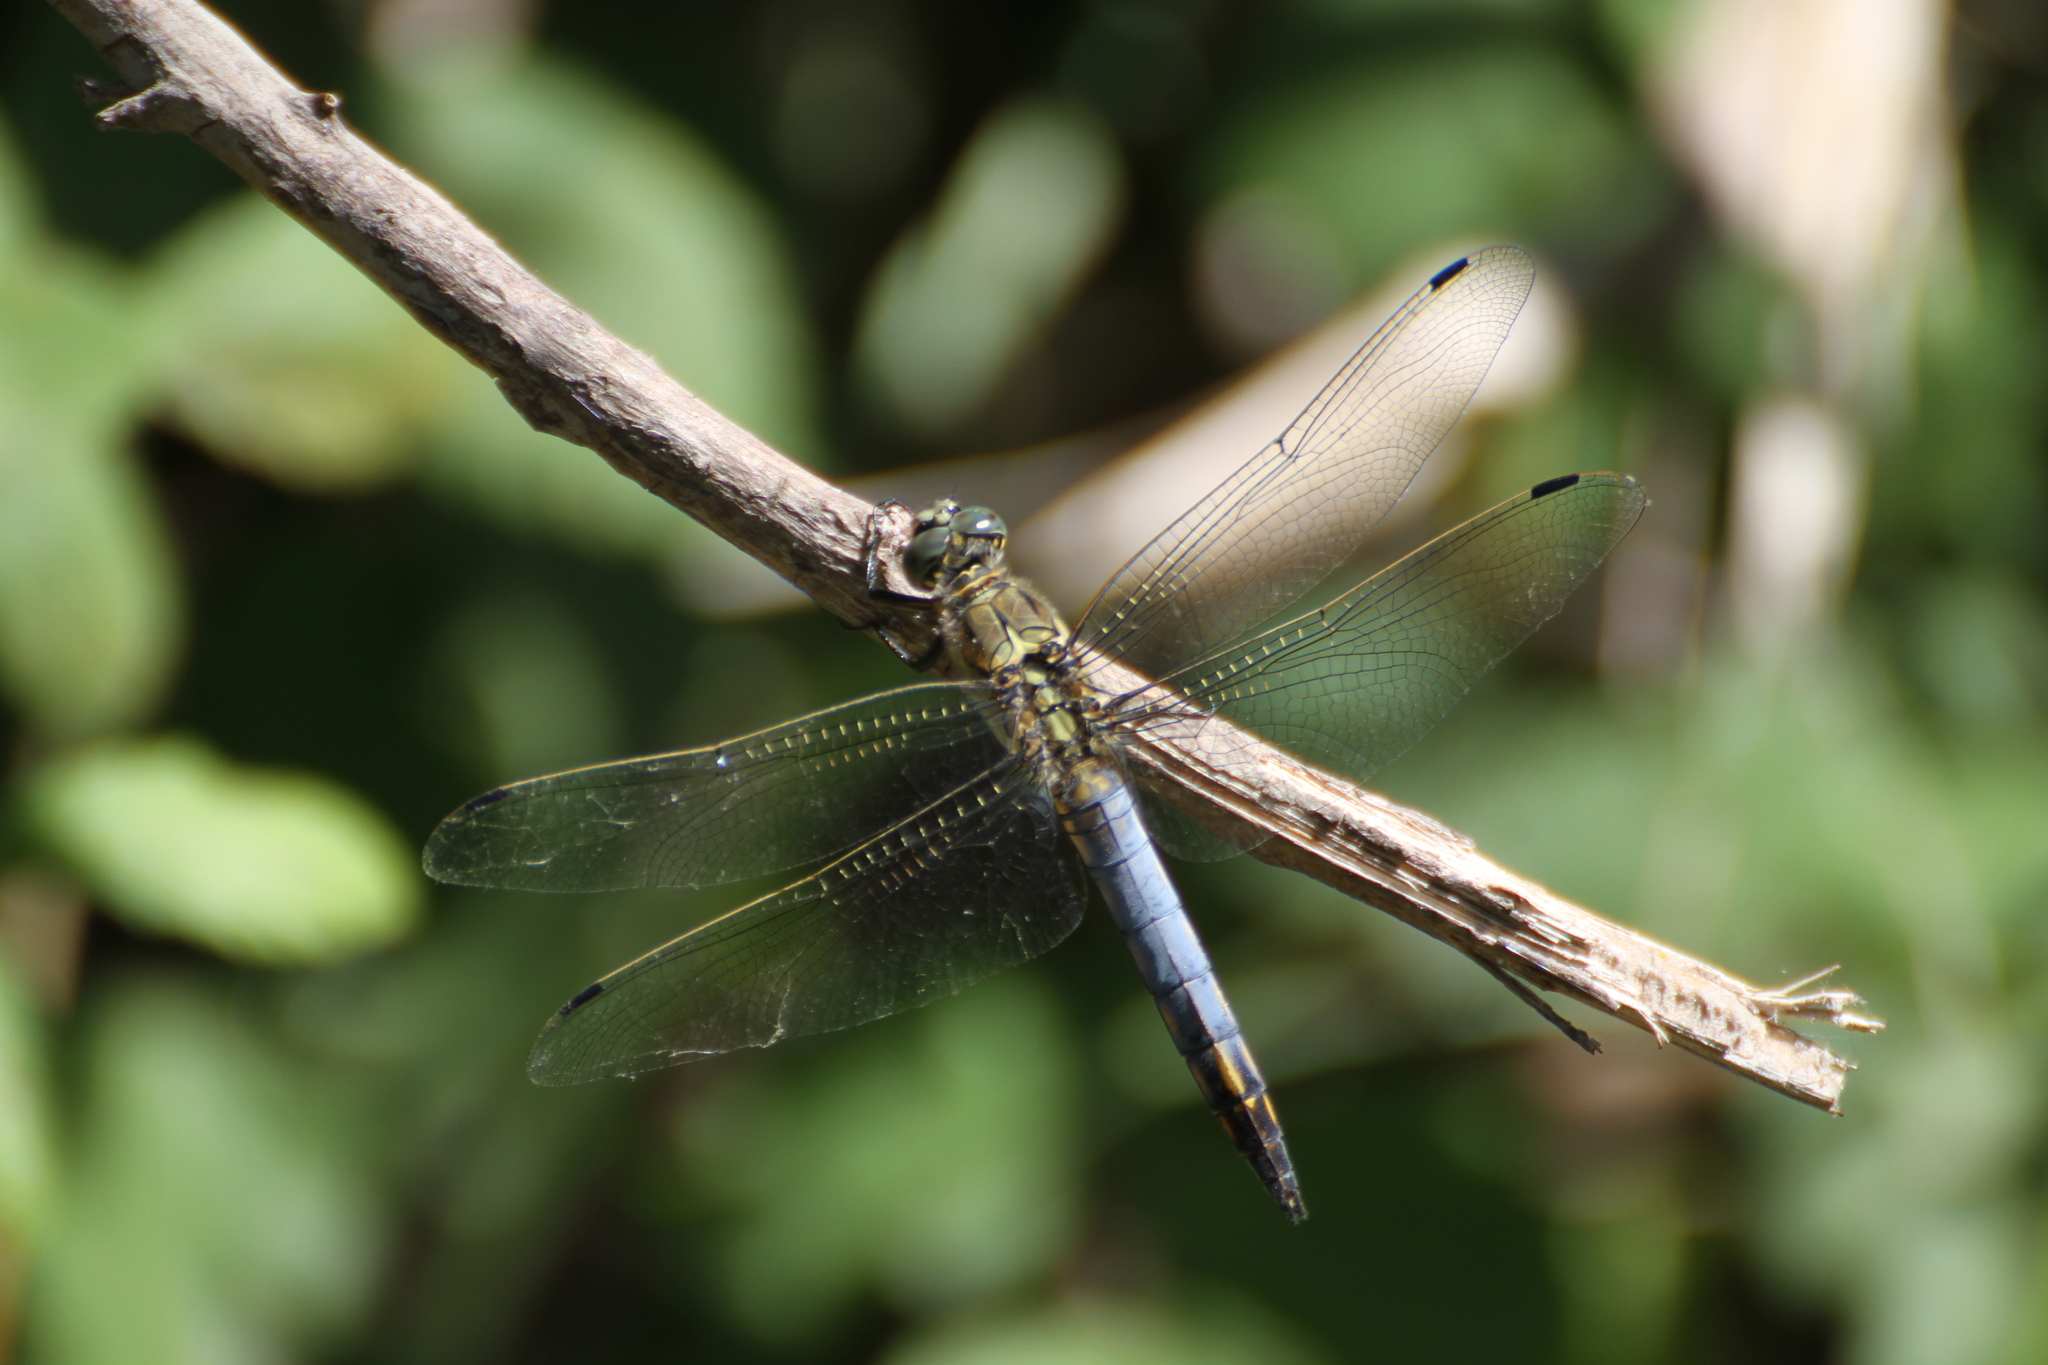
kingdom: Animalia
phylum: Arthropoda
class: Insecta
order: Odonata
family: Libellulidae
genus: Orthetrum
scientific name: Orthetrum cancellatum
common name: Black-tailed skimmer
